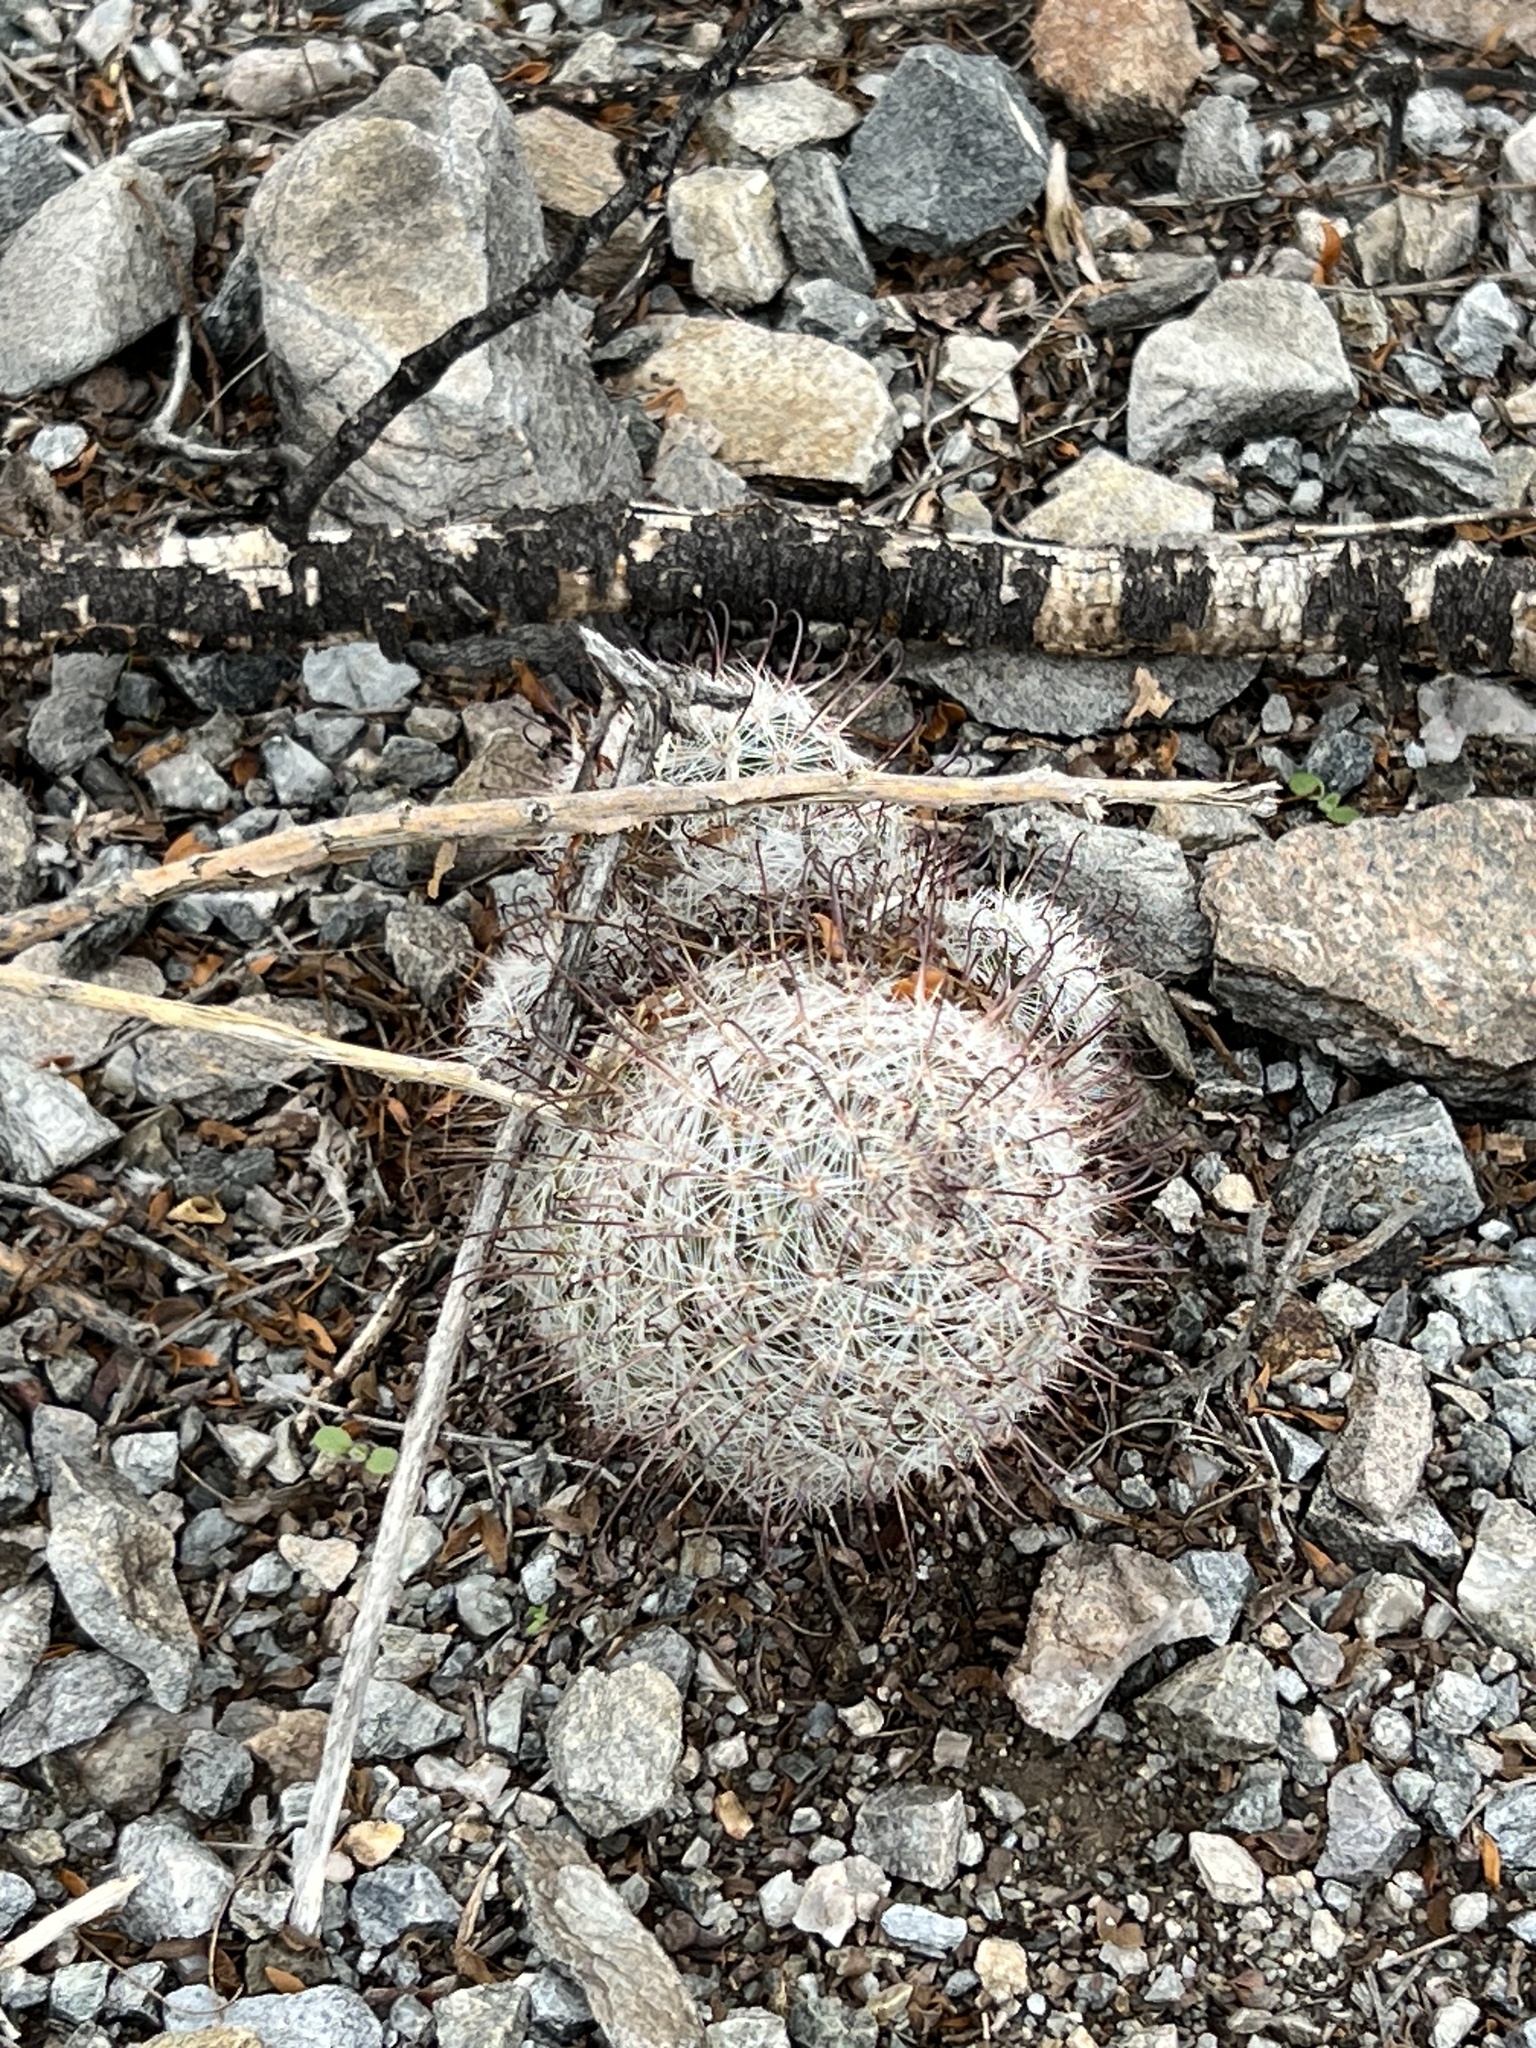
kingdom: Plantae
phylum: Tracheophyta
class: Magnoliopsida
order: Caryophyllales
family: Cactaceae
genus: Cochemiea
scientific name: Cochemiea grahamii
